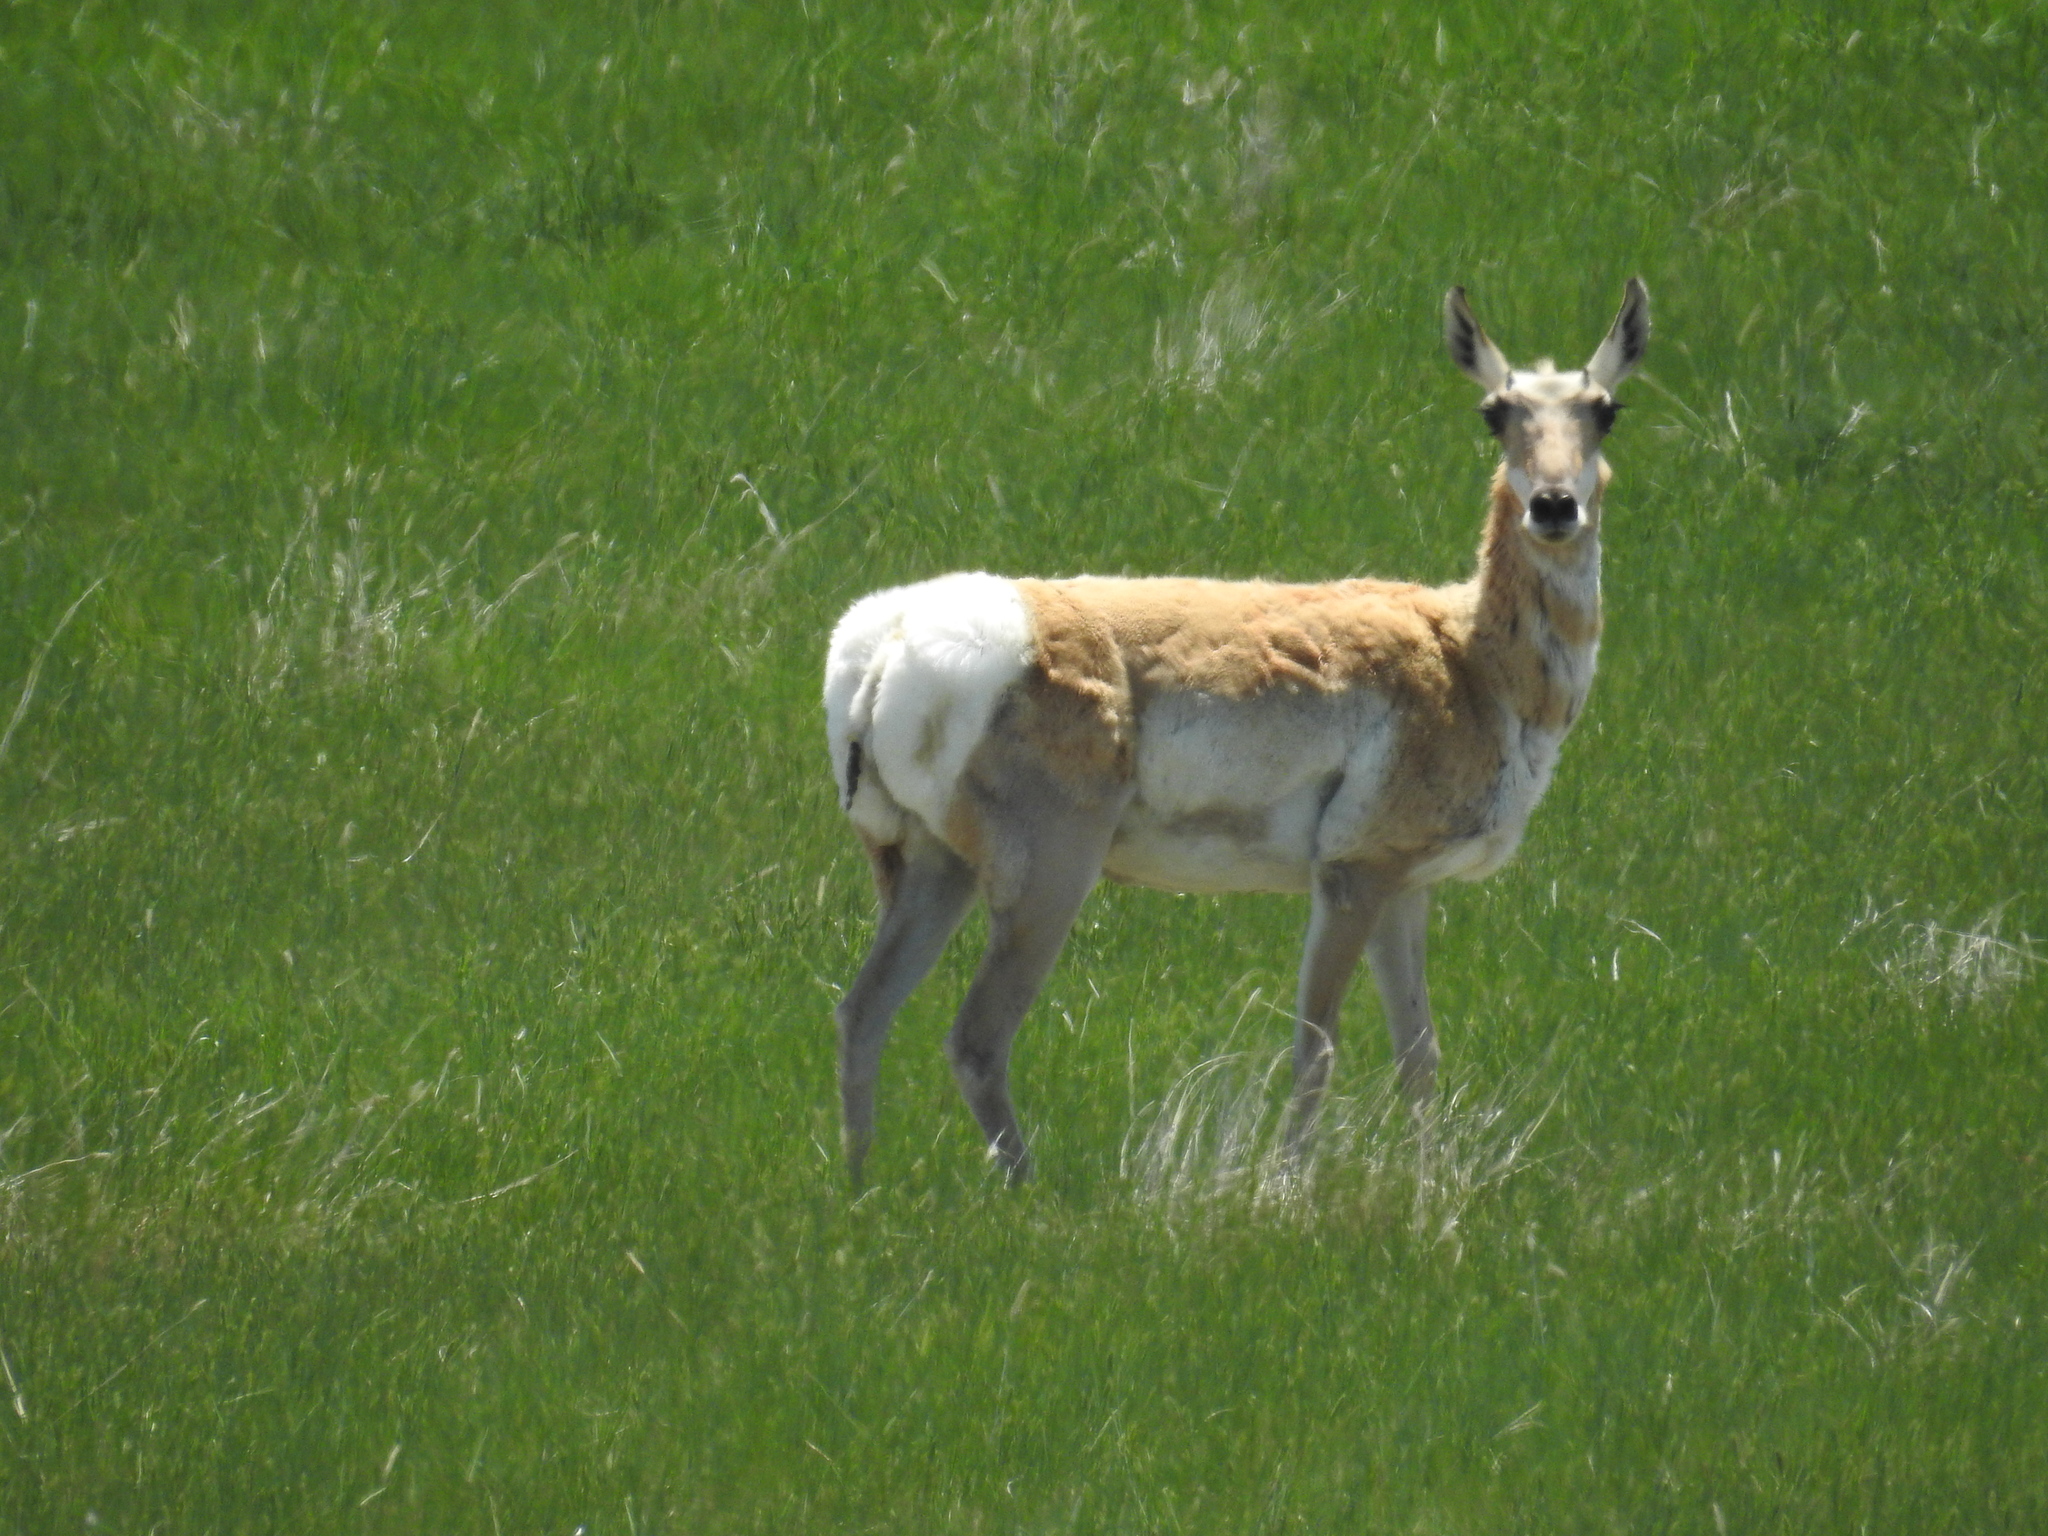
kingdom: Animalia
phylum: Chordata
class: Mammalia
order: Artiodactyla
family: Antilocapridae
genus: Antilocapra
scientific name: Antilocapra americana
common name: Pronghorn
